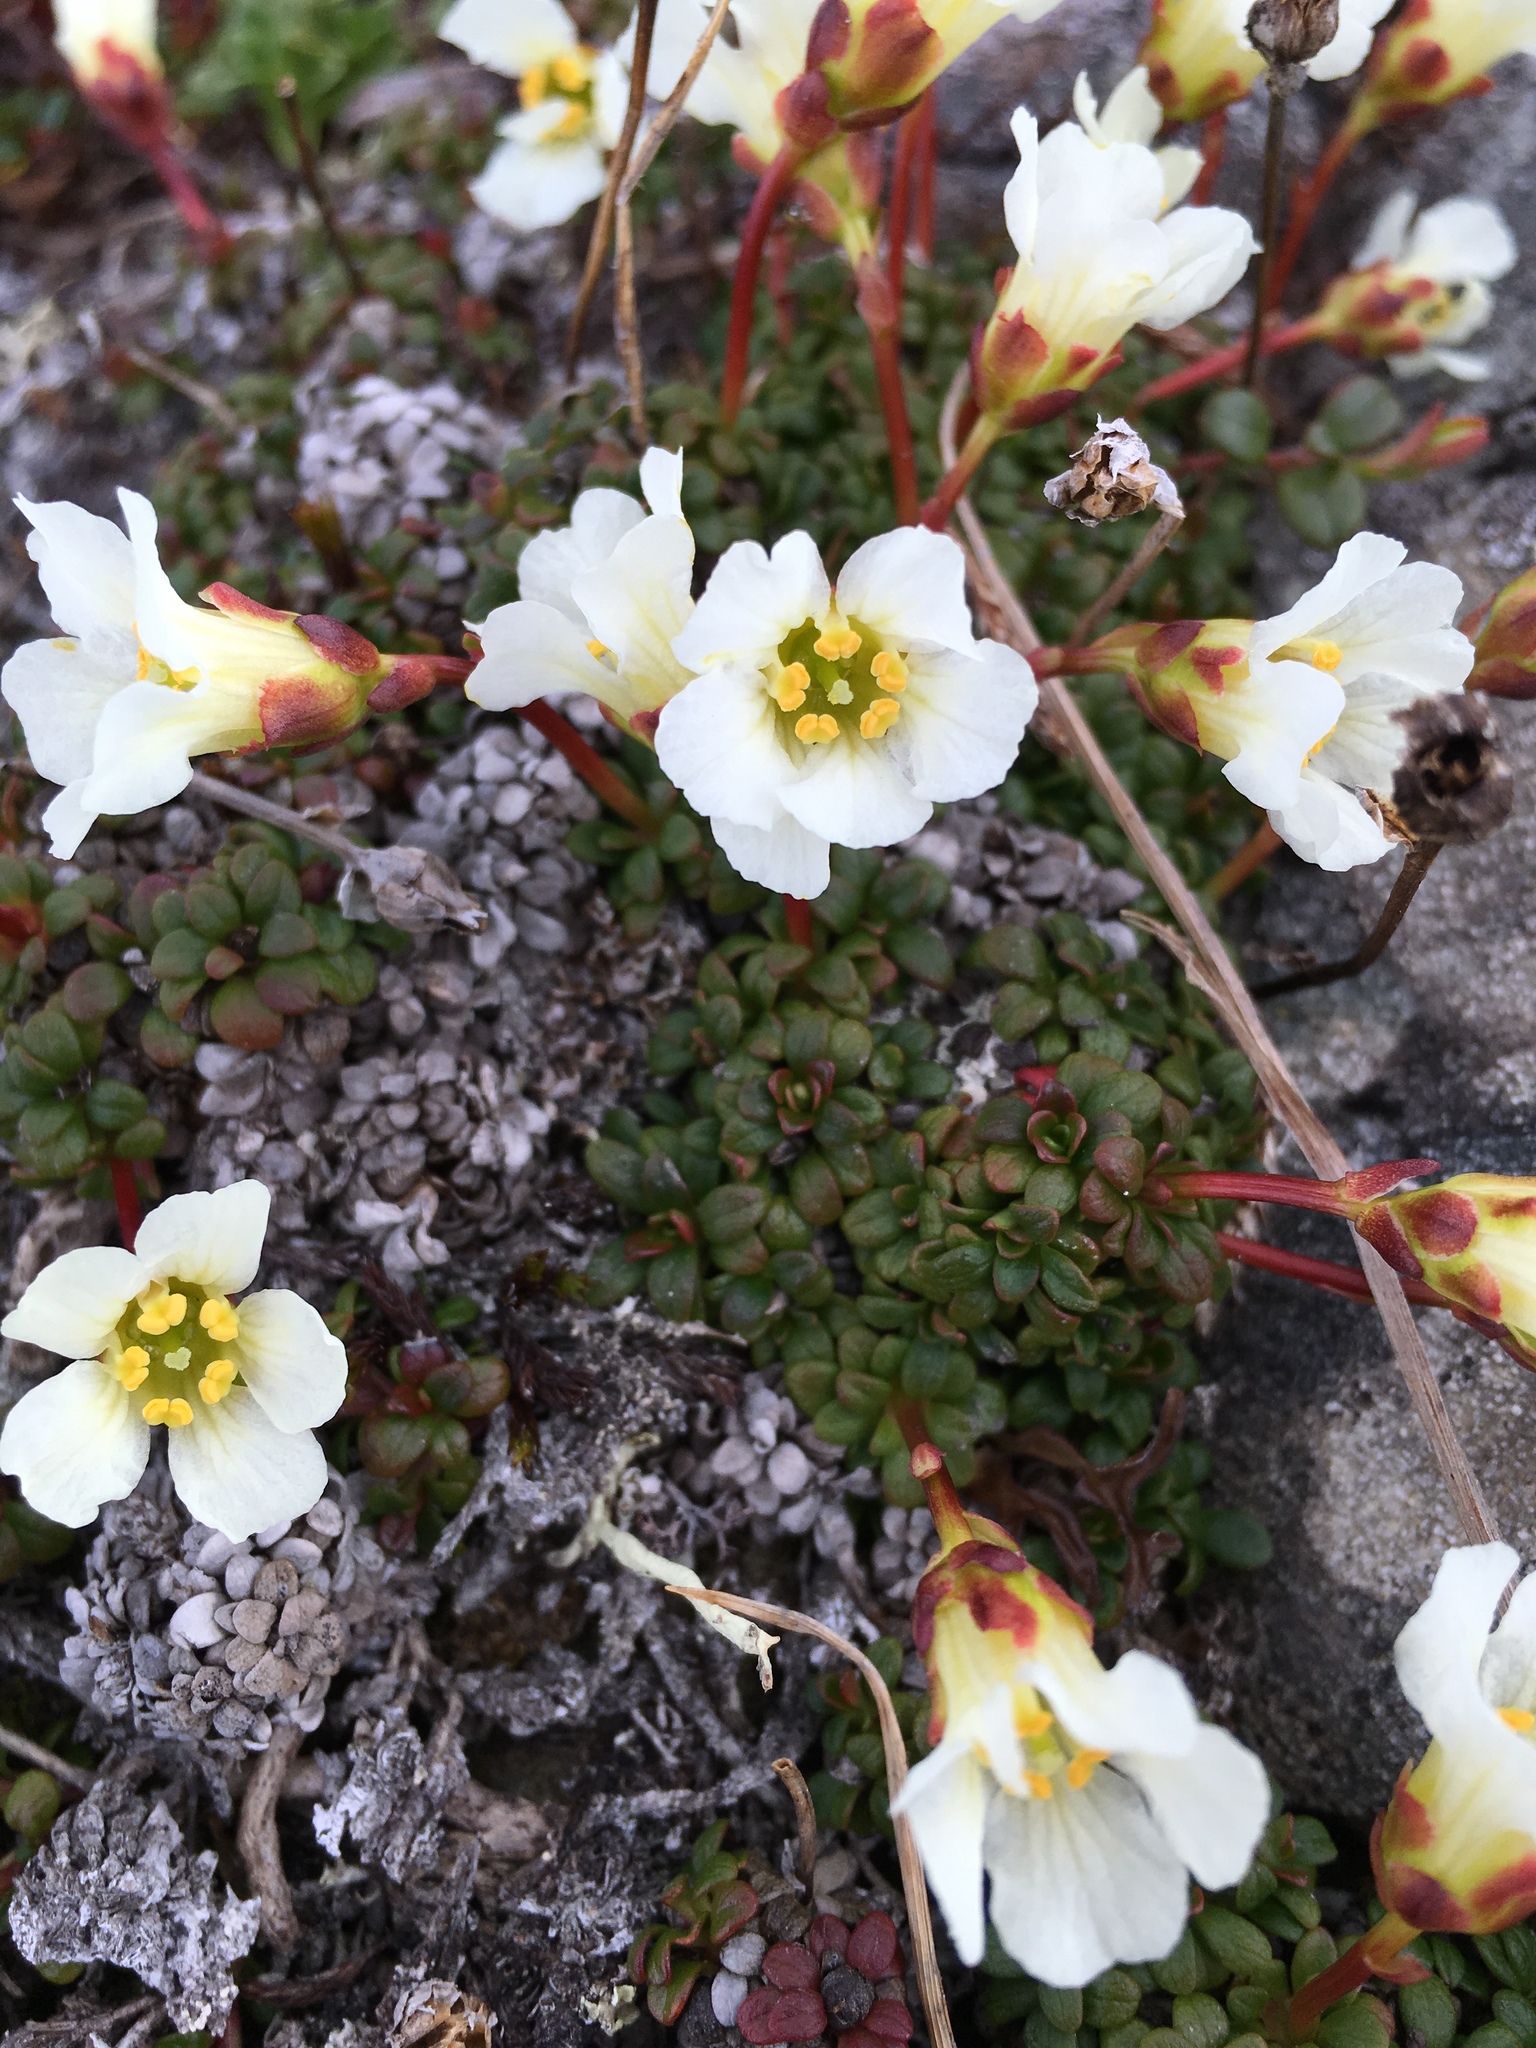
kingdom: Plantae
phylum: Tracheophyta
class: Magnoliopsida
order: Ericales
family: Diapensiaceae
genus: Diapensia
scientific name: Diapensia obovata
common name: Alaska diapensia
